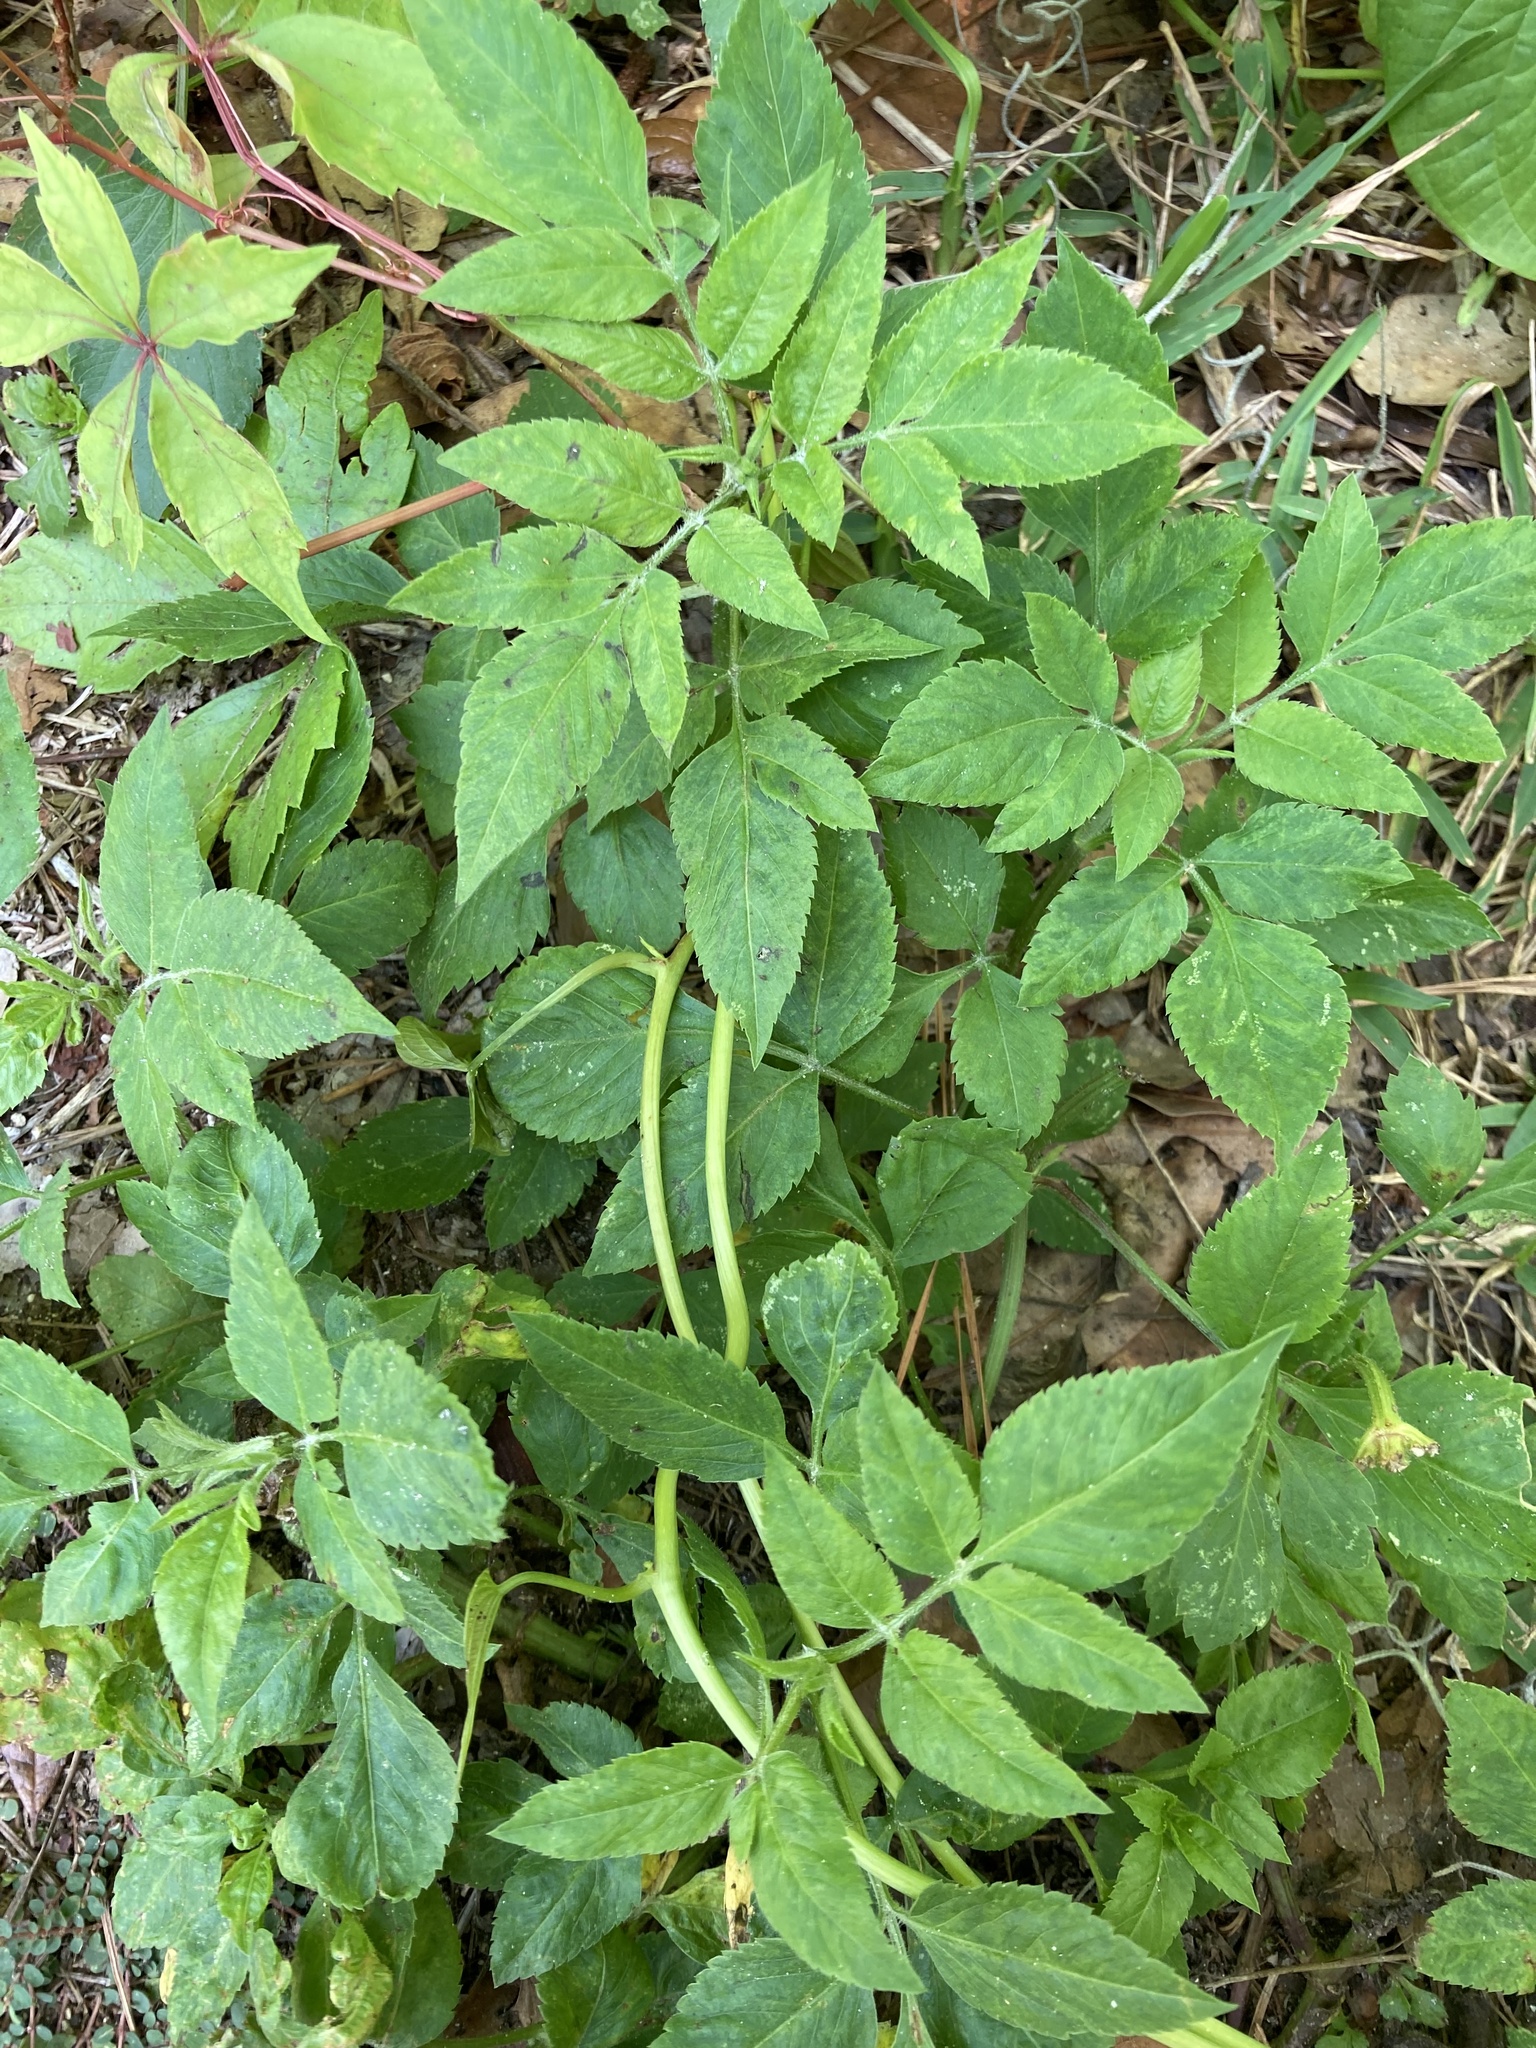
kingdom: Plantae
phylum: Tracheophyta
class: Magnoliopsida
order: Asterales
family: Asteraceae
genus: Bidens
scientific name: Bidens alba
